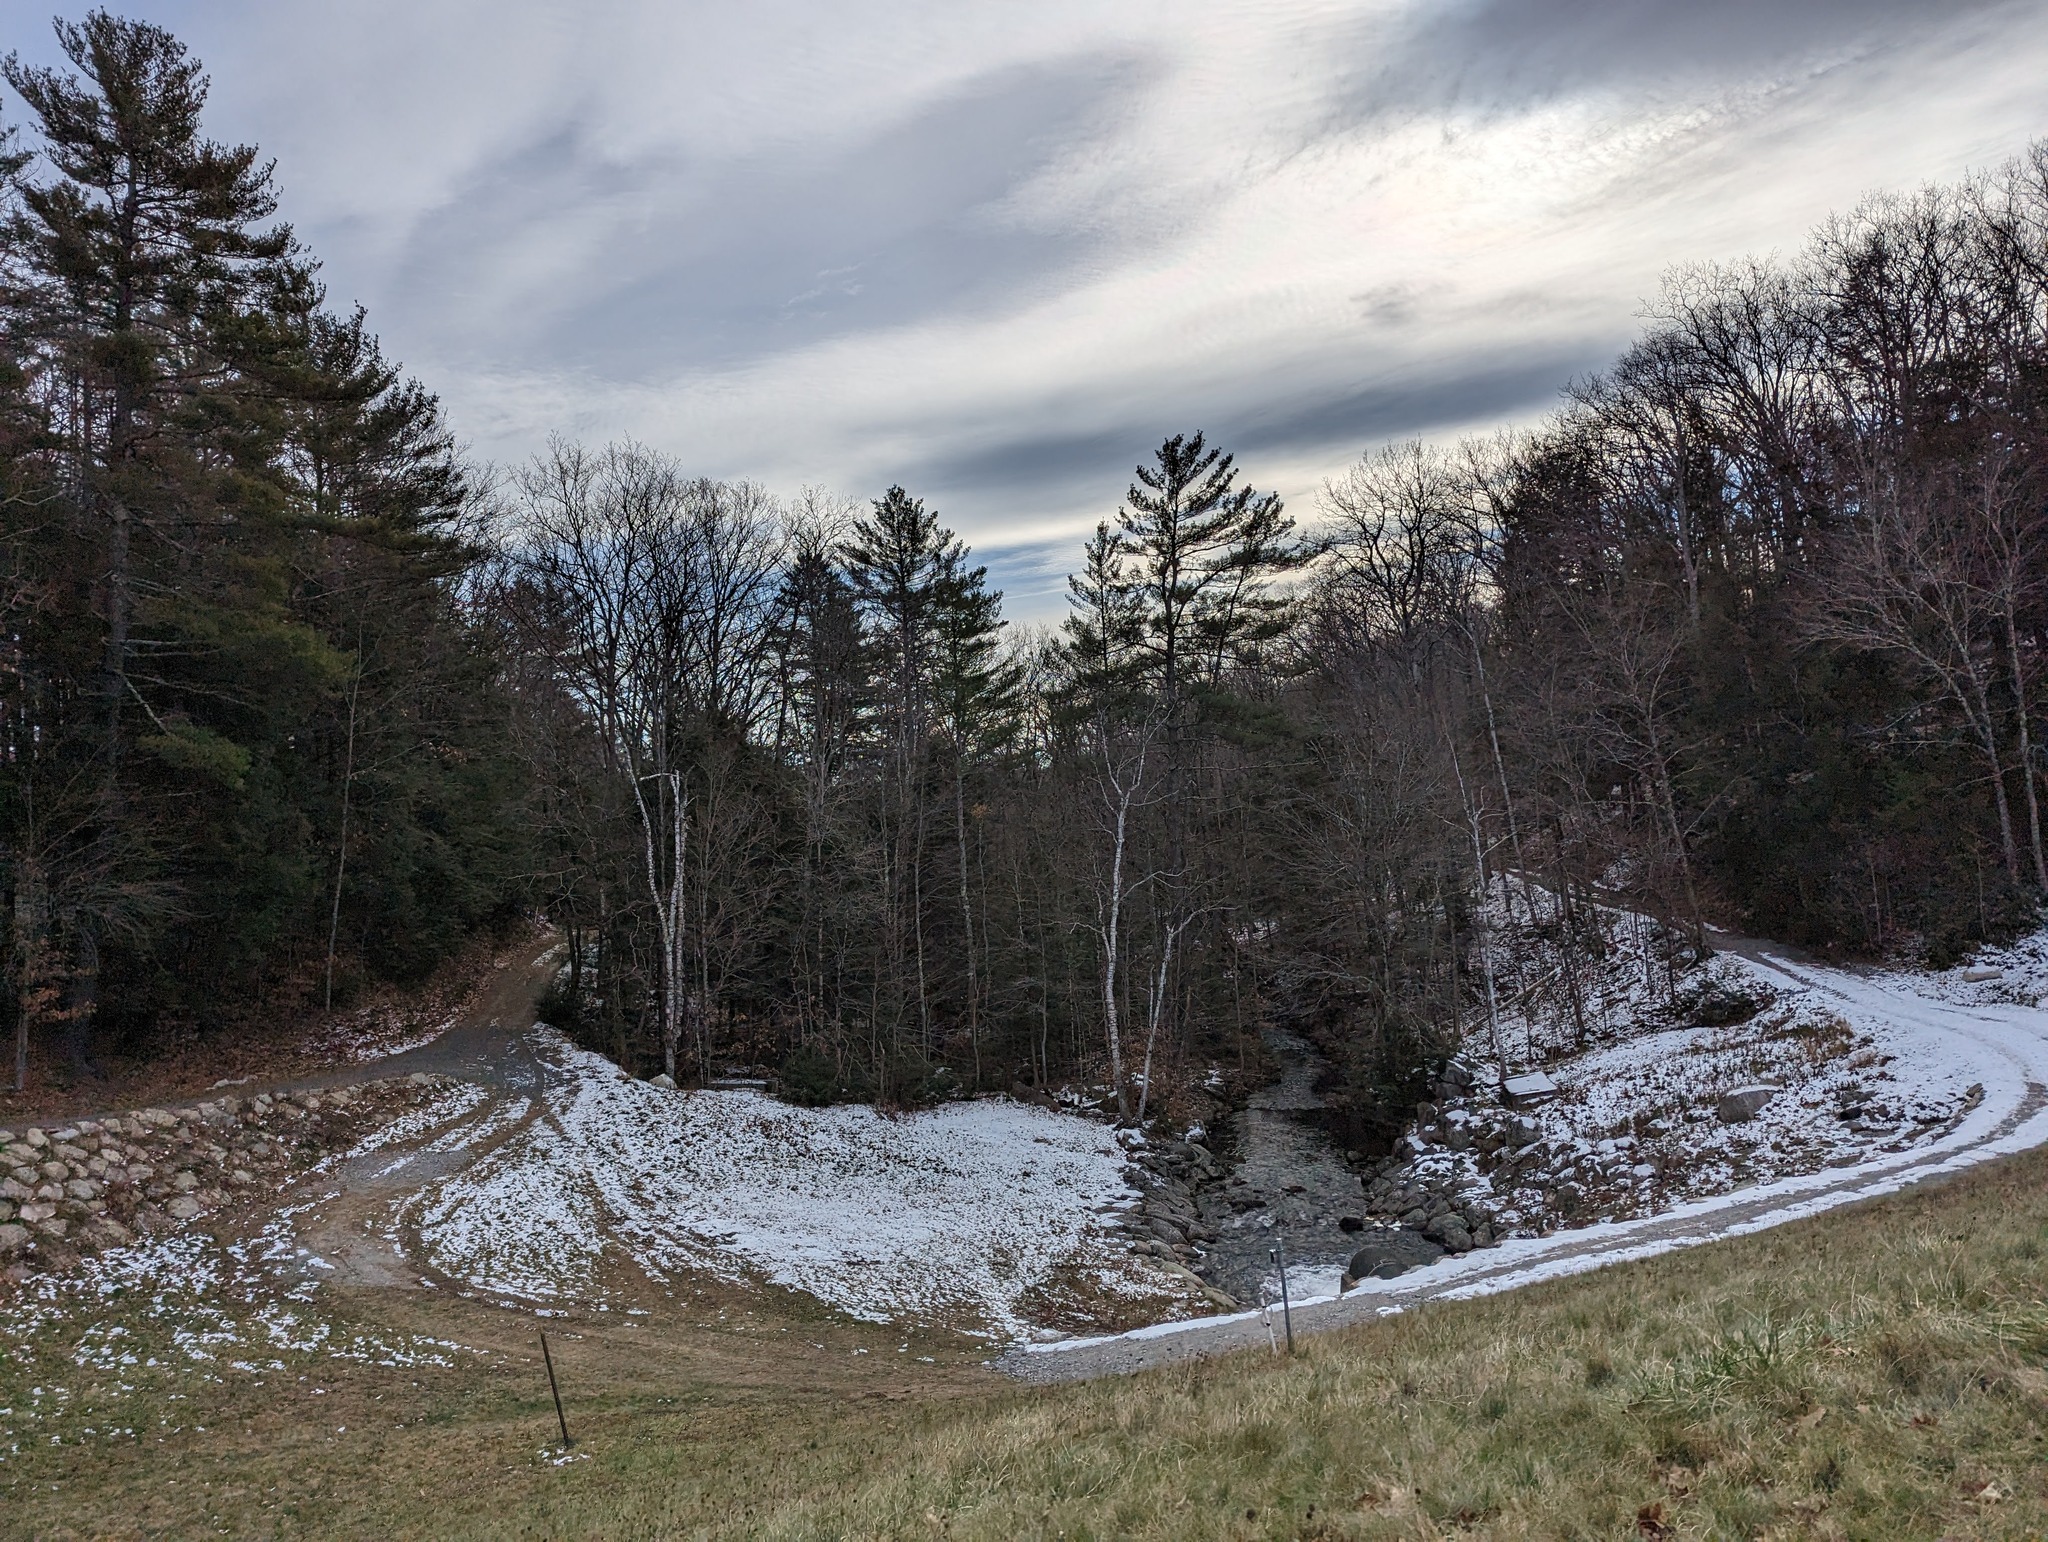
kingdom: Plantae
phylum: Tracheophyta
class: Pinopsida
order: Pinales
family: Pinaceae
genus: Pinus
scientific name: Pinus strobus
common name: Weymouth pine
